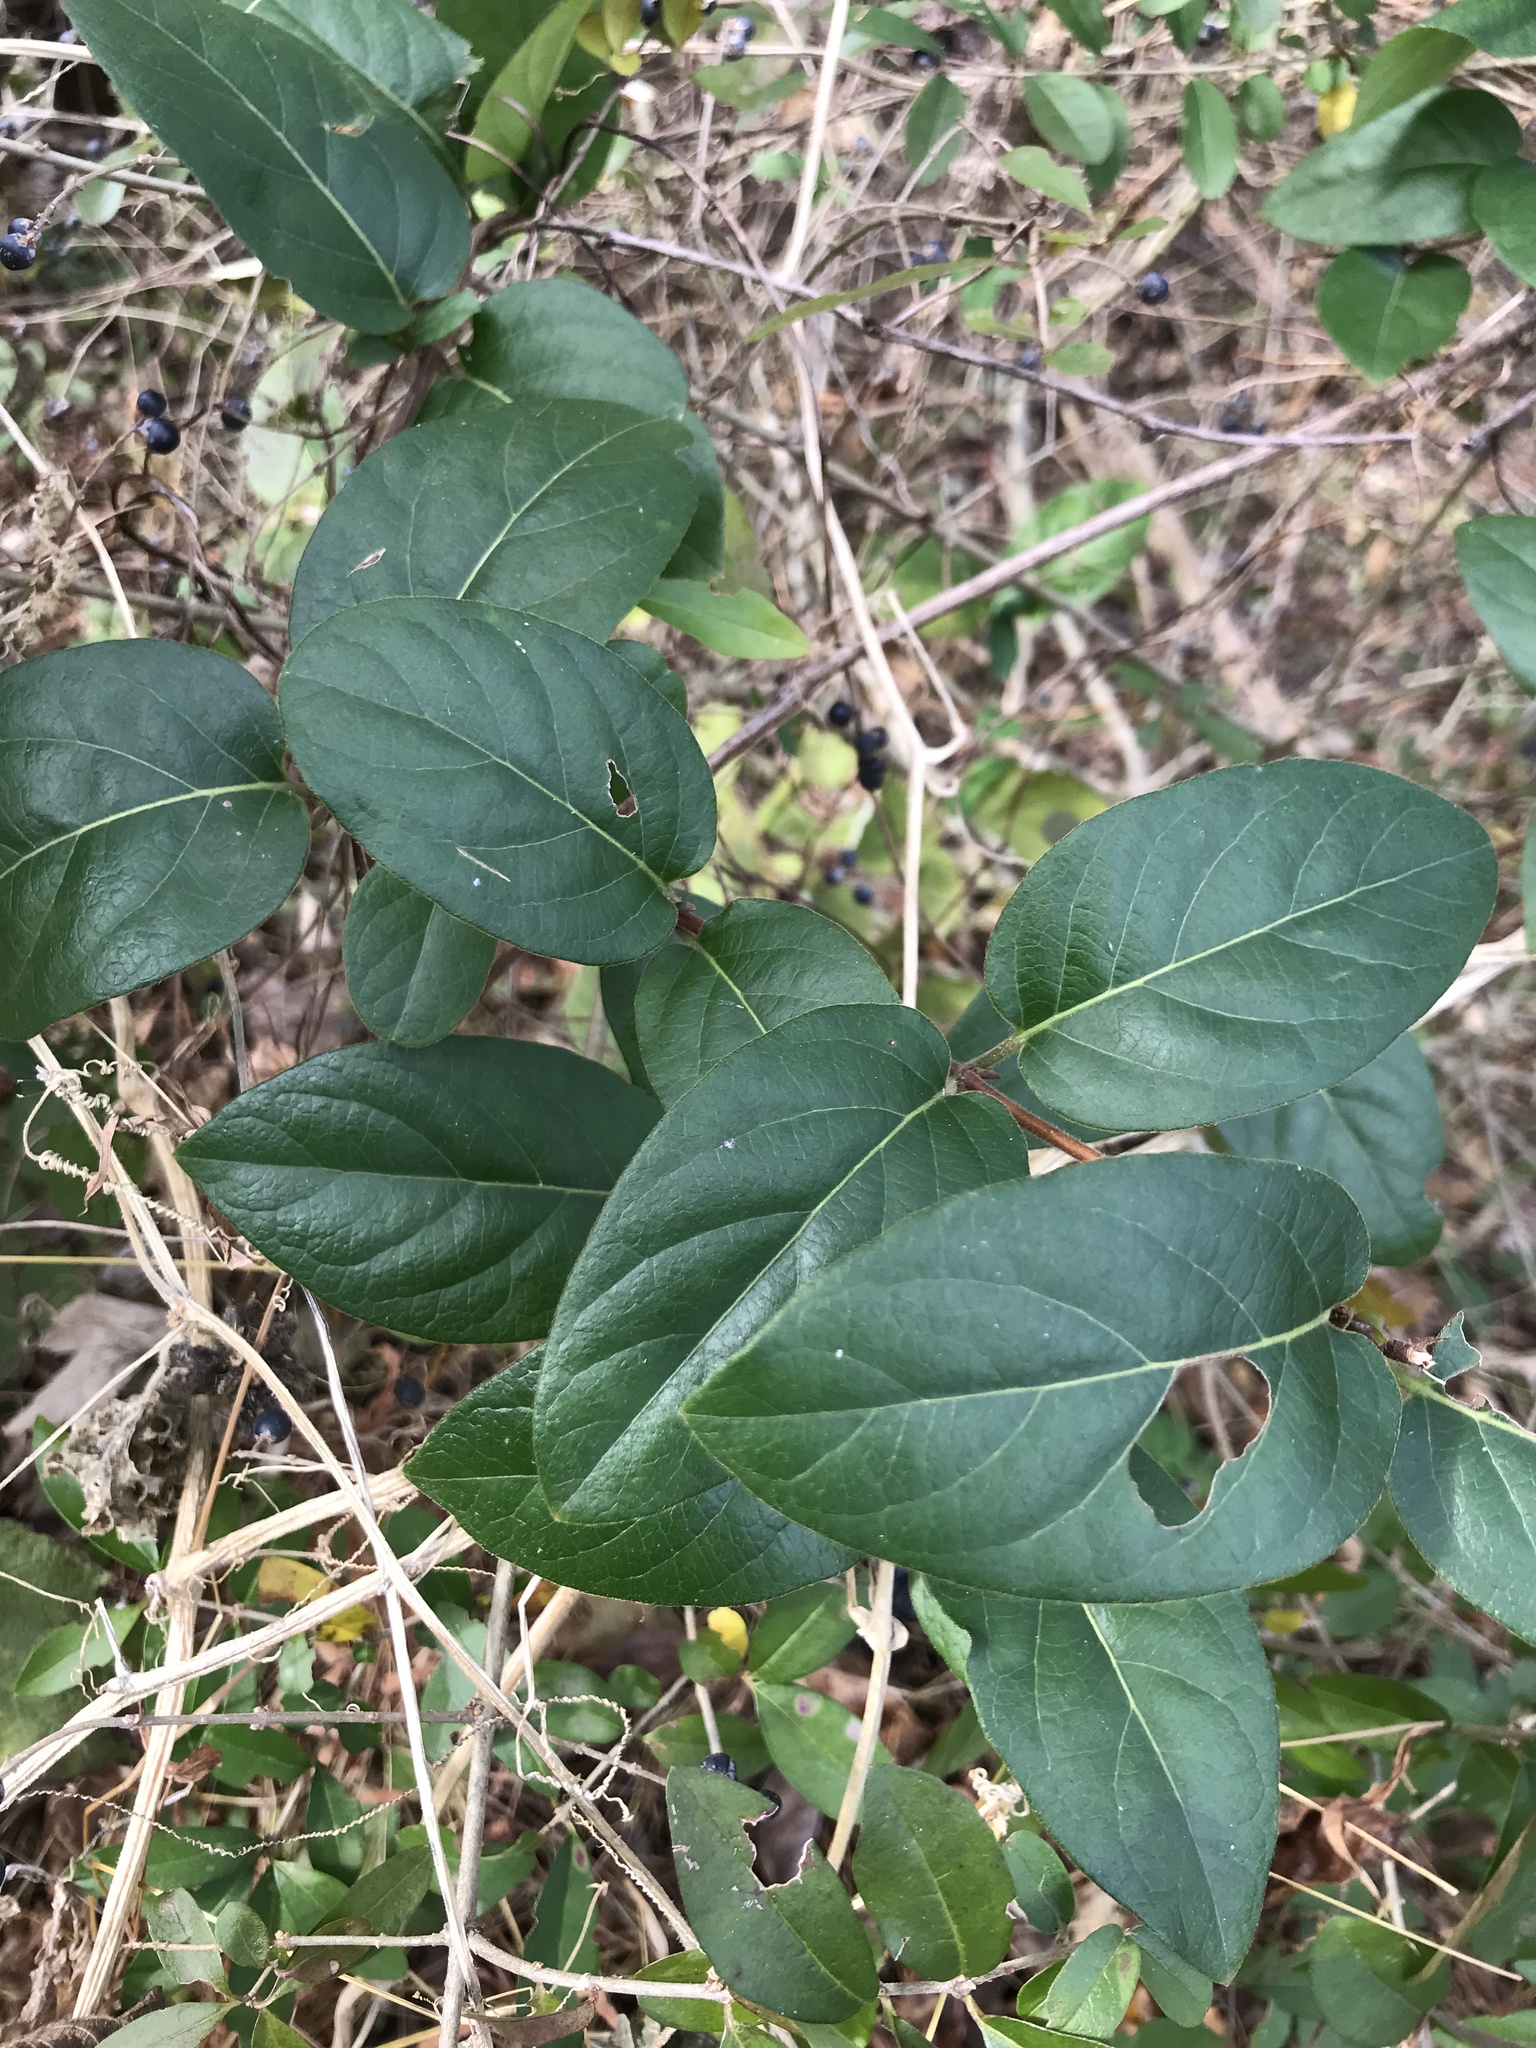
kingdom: Plantae
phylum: Tracheophyta
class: Magnoliopsida
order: Dipsacales
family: Caprifoliaceae
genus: Lonicera
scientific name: Lonicera japonica
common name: Japanese honeysuckle
